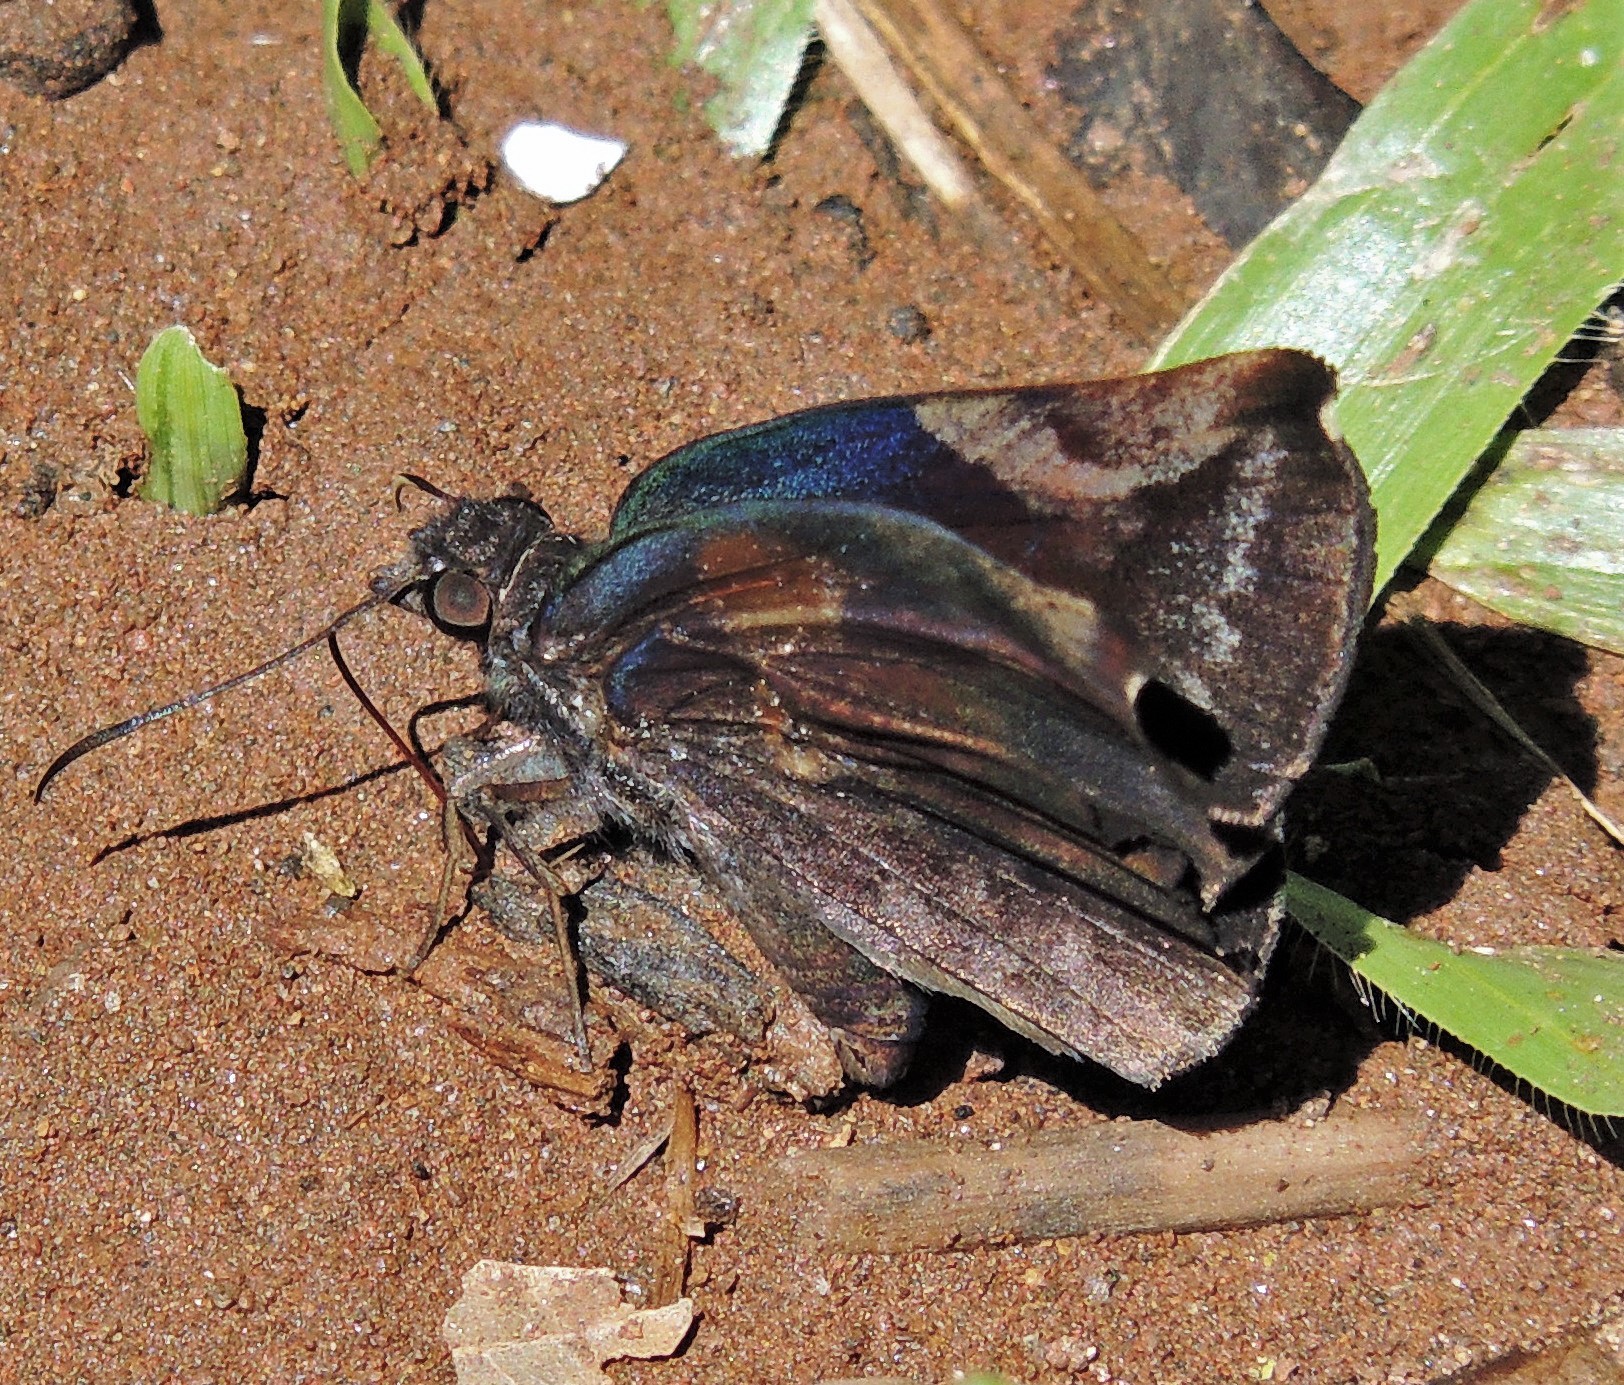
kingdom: Animalia
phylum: Arthropoda
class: Insecta
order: Lepidoptera
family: Hesperiidae
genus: Achlyodes
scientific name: Achlyodes thraso
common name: Sickle-winged skipper
